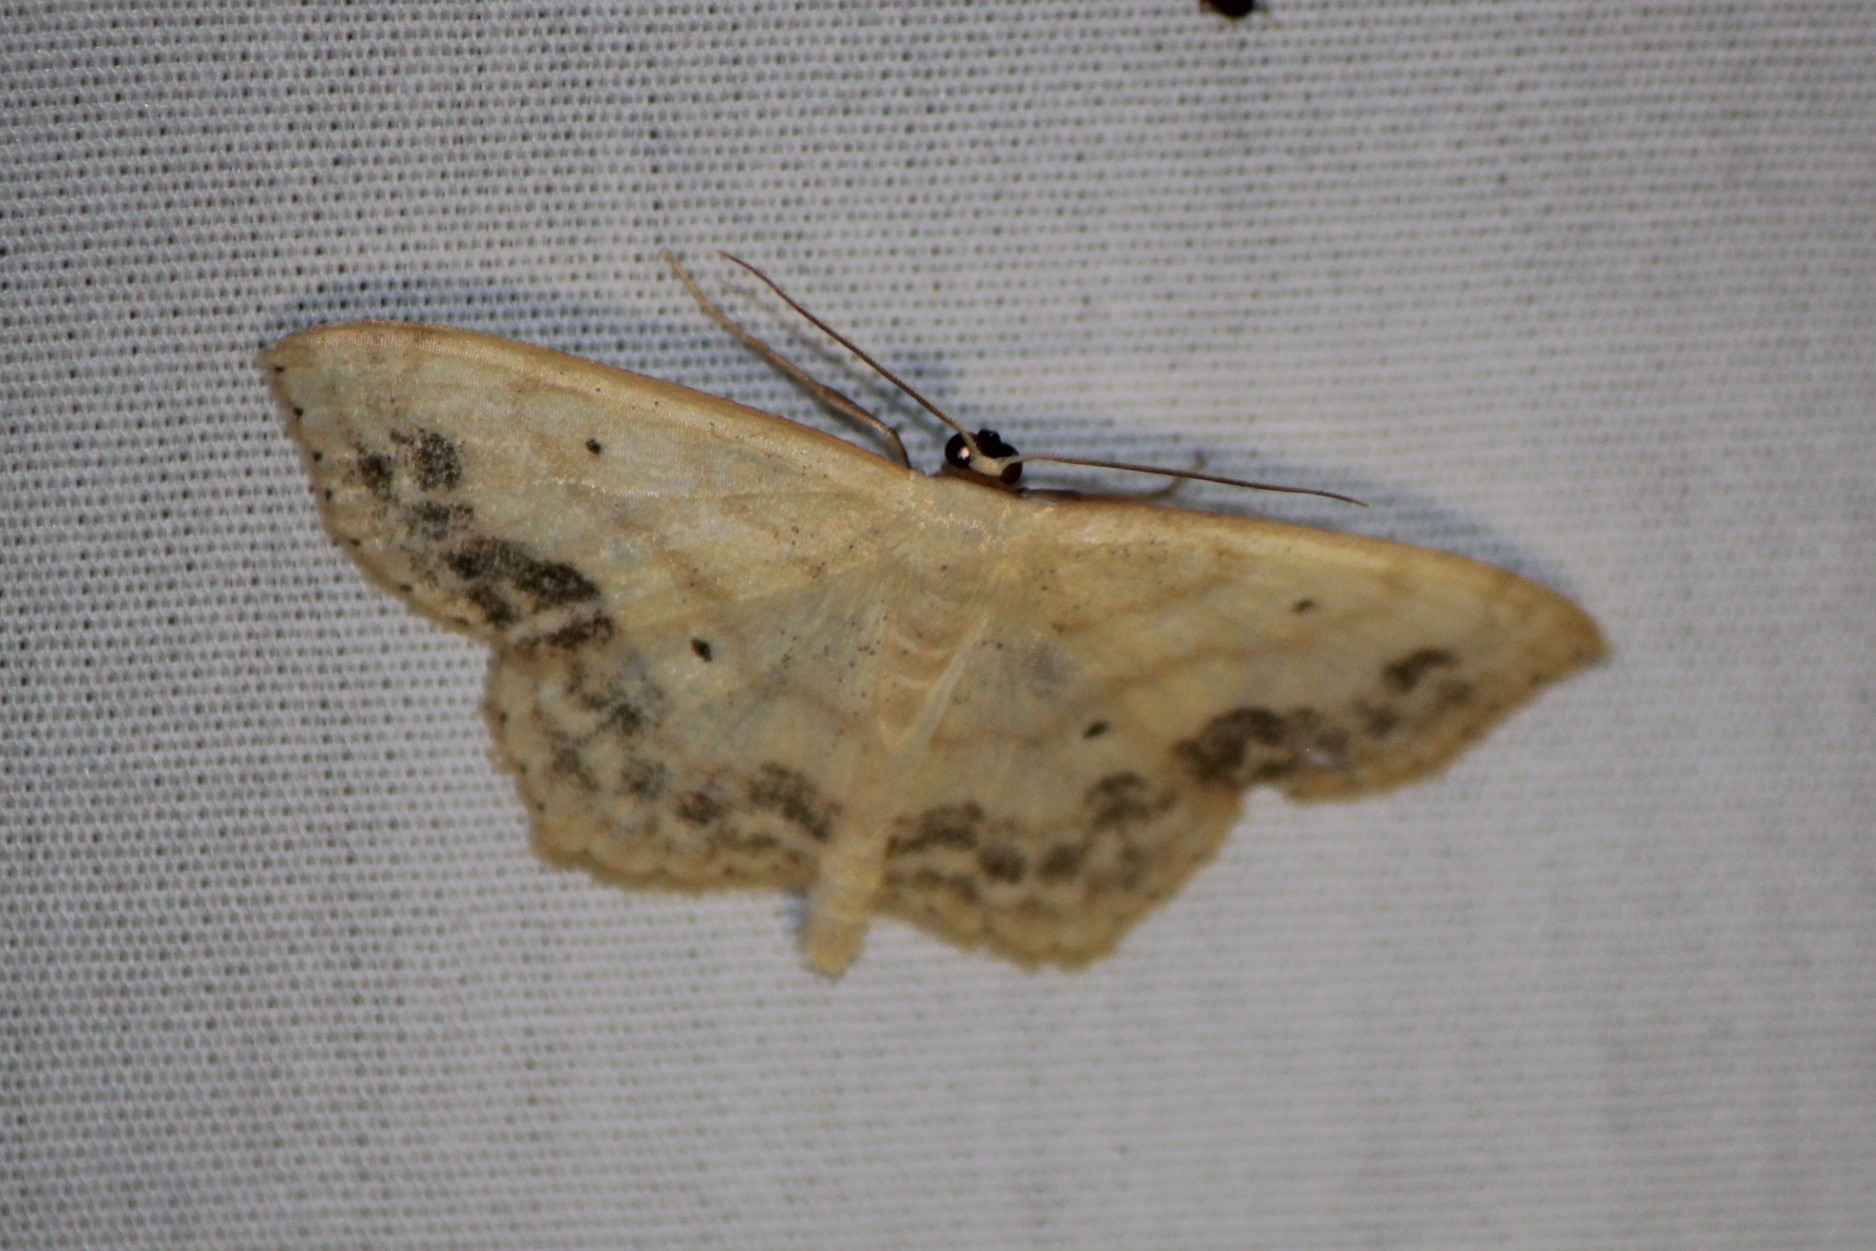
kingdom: Animalia
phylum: Arthropoda
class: Insecta
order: Lepidoptera
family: Geometridae
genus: Scopula
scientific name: Scopula limboundata
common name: Large lace border
